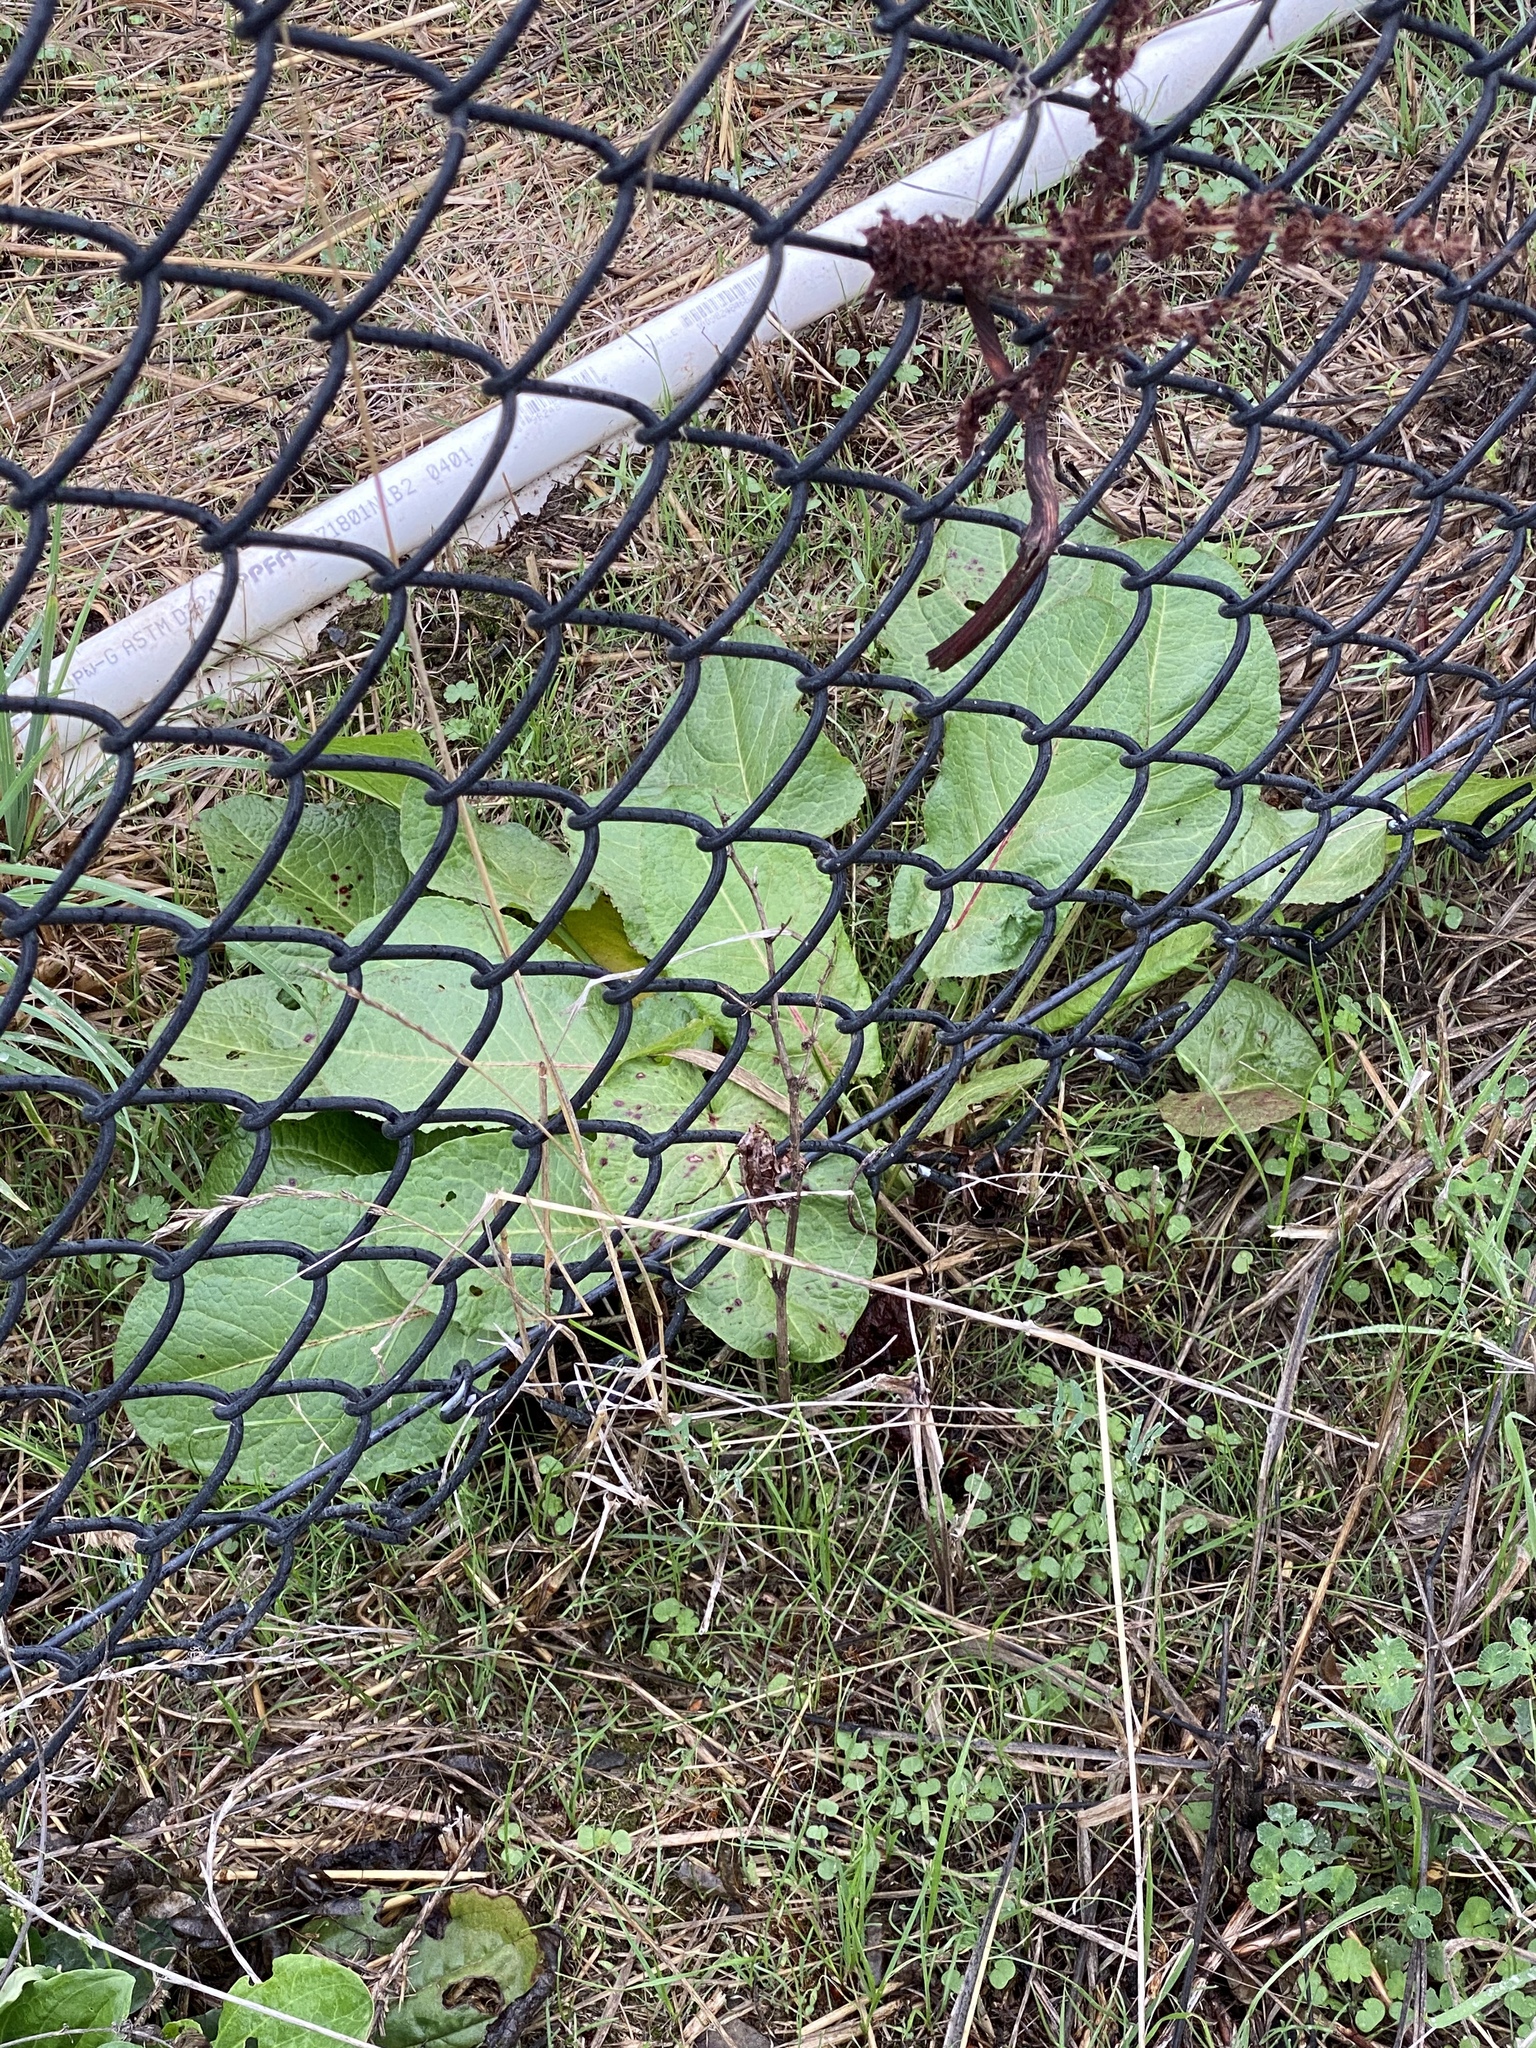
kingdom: Plantae
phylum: Tracheophyta
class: Magnoliopsida
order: Caryophyllales
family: Polygonaceae
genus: Rumex
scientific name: Rumex obtusifolius
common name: Bitter dock
